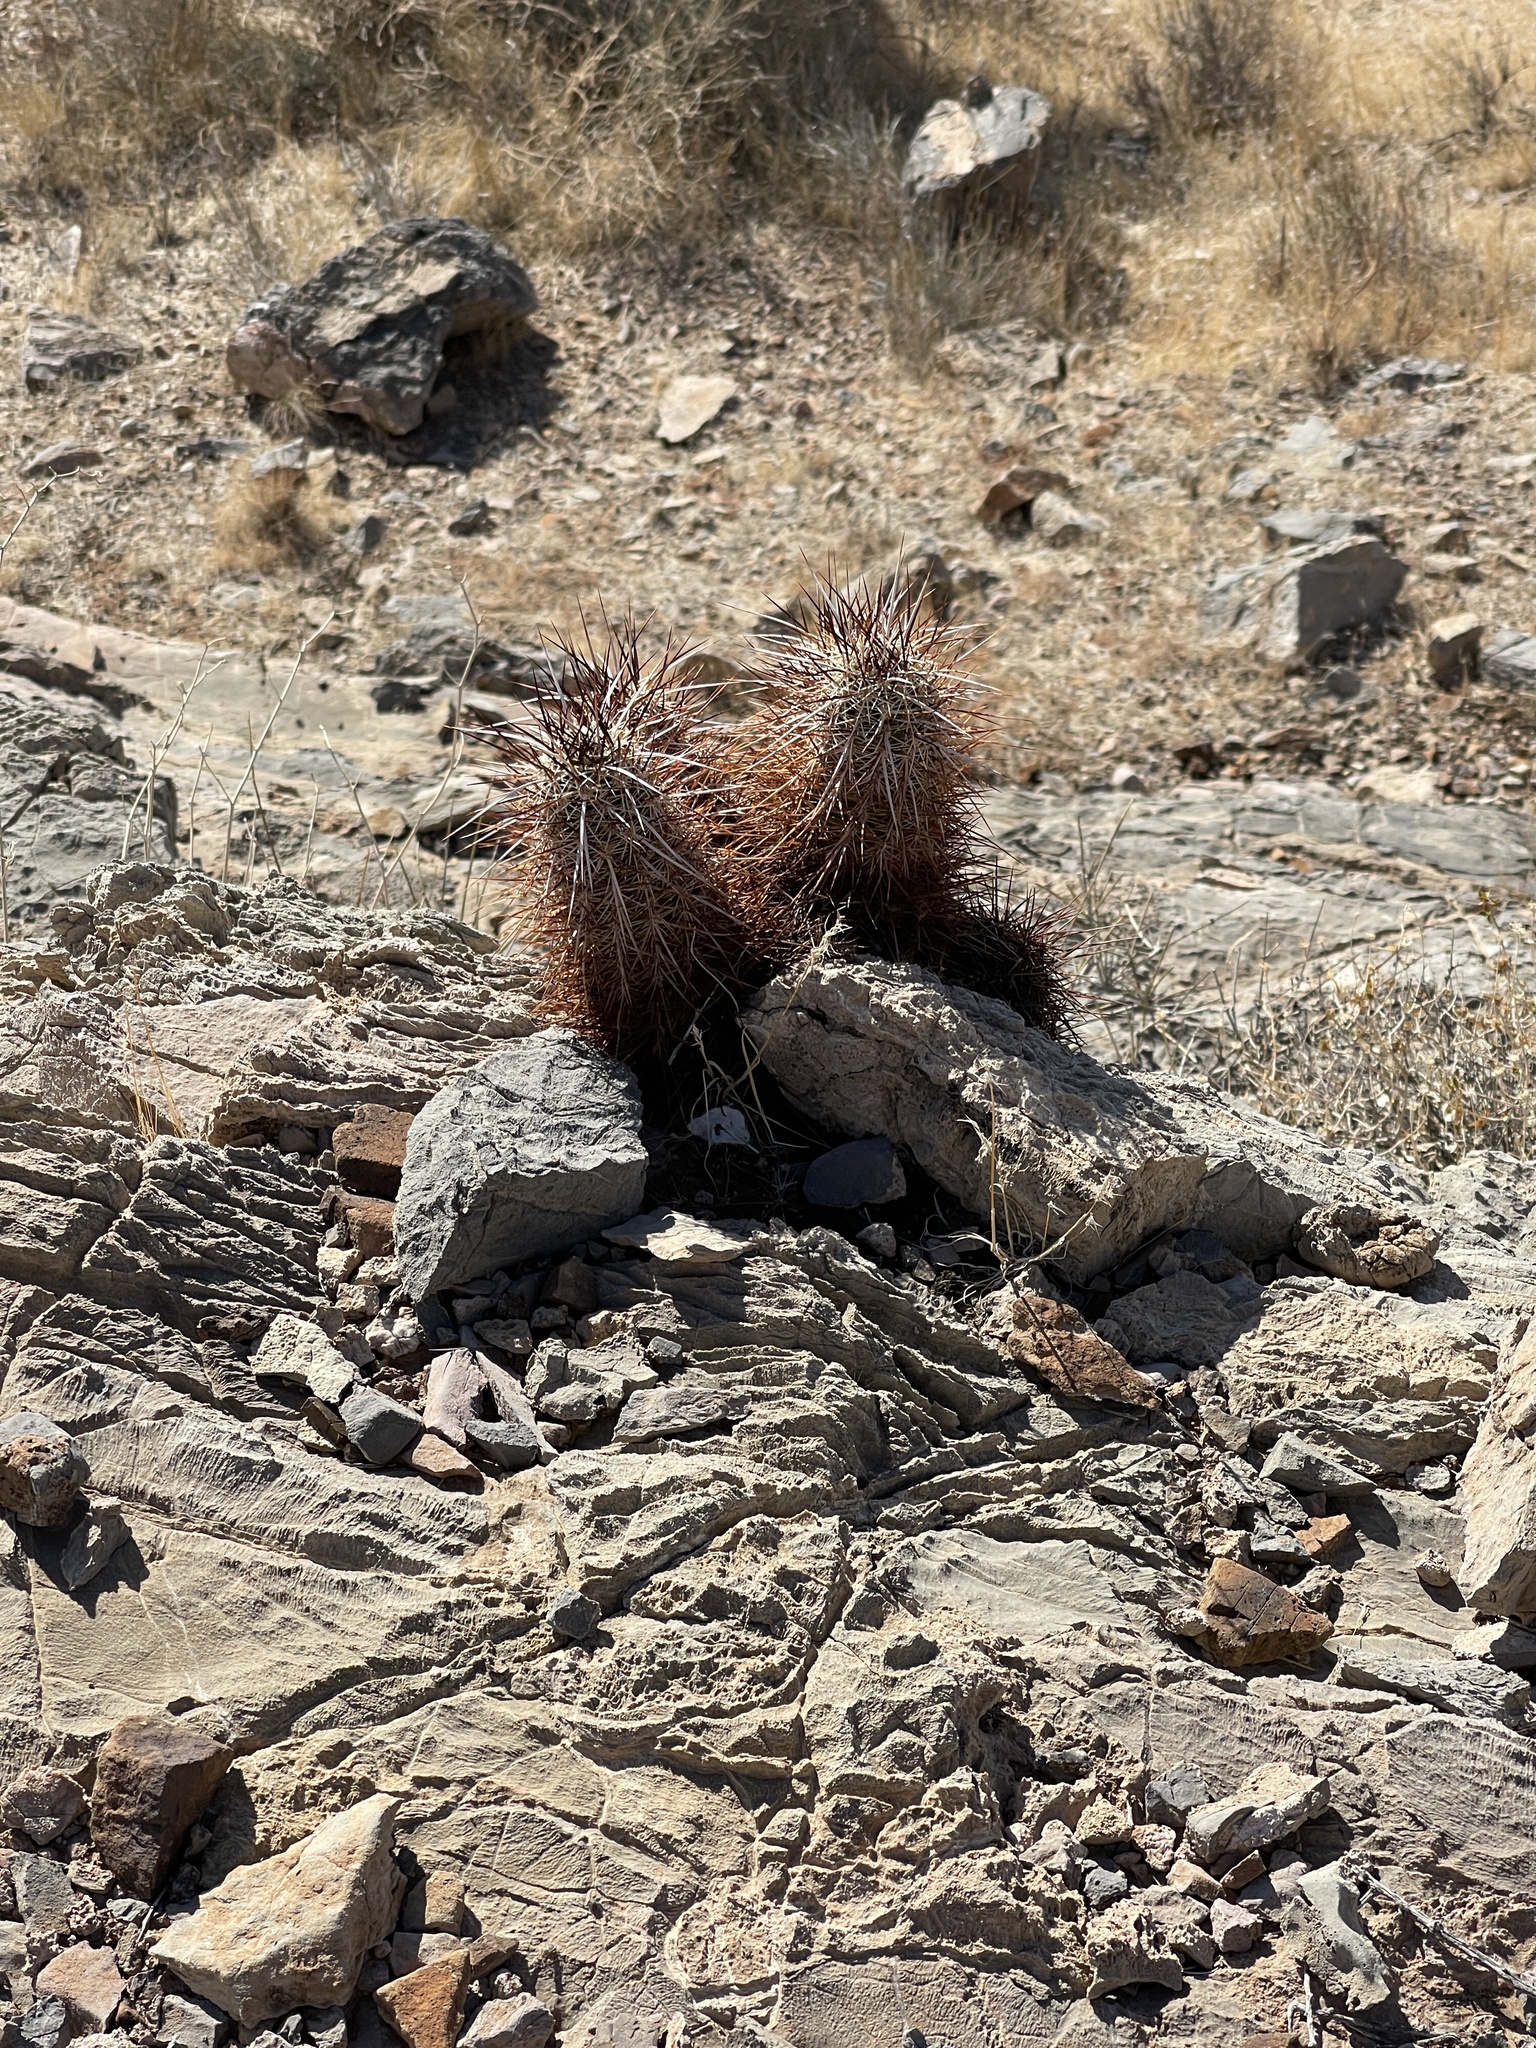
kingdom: Plantae
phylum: Tracheophyta
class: Magnoliopsida
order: Caryophyllales
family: Cactaceae
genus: Echinocereus
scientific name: Echinocereus engelmannii
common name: Engelmann's hedgehog cactus
